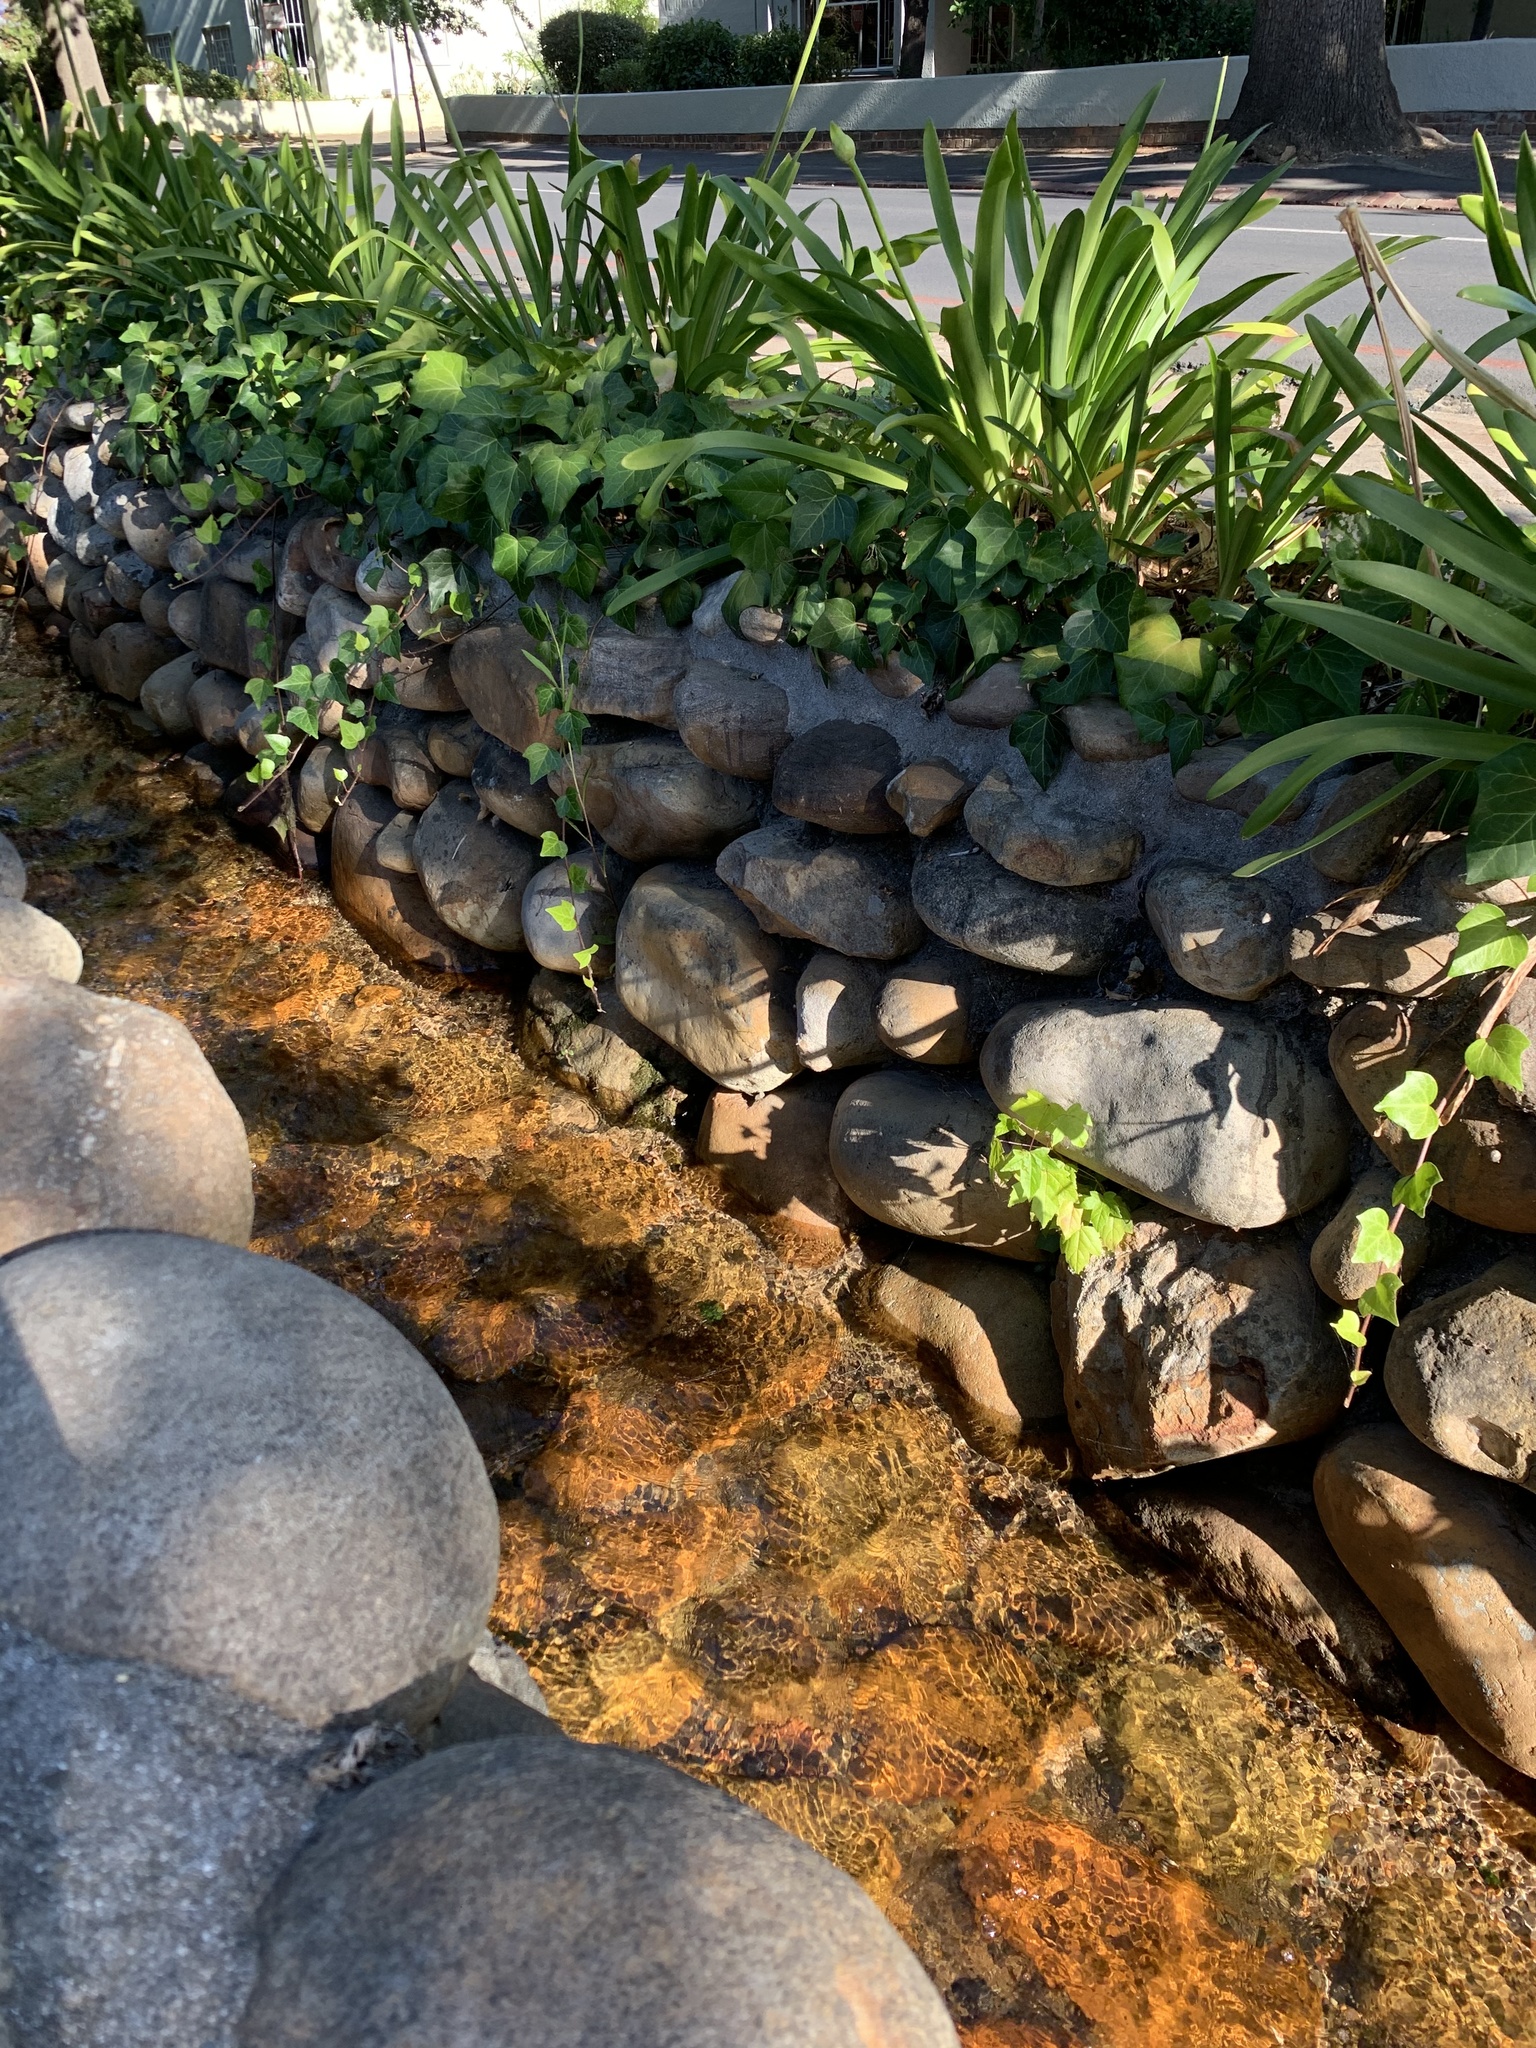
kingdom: Plantae
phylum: Tracheophyta
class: Magnoliopsida
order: Saxifragales
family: Altingiaceae
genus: Liquidambar
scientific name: Liquidambar styraciflua
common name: Sweet gum
